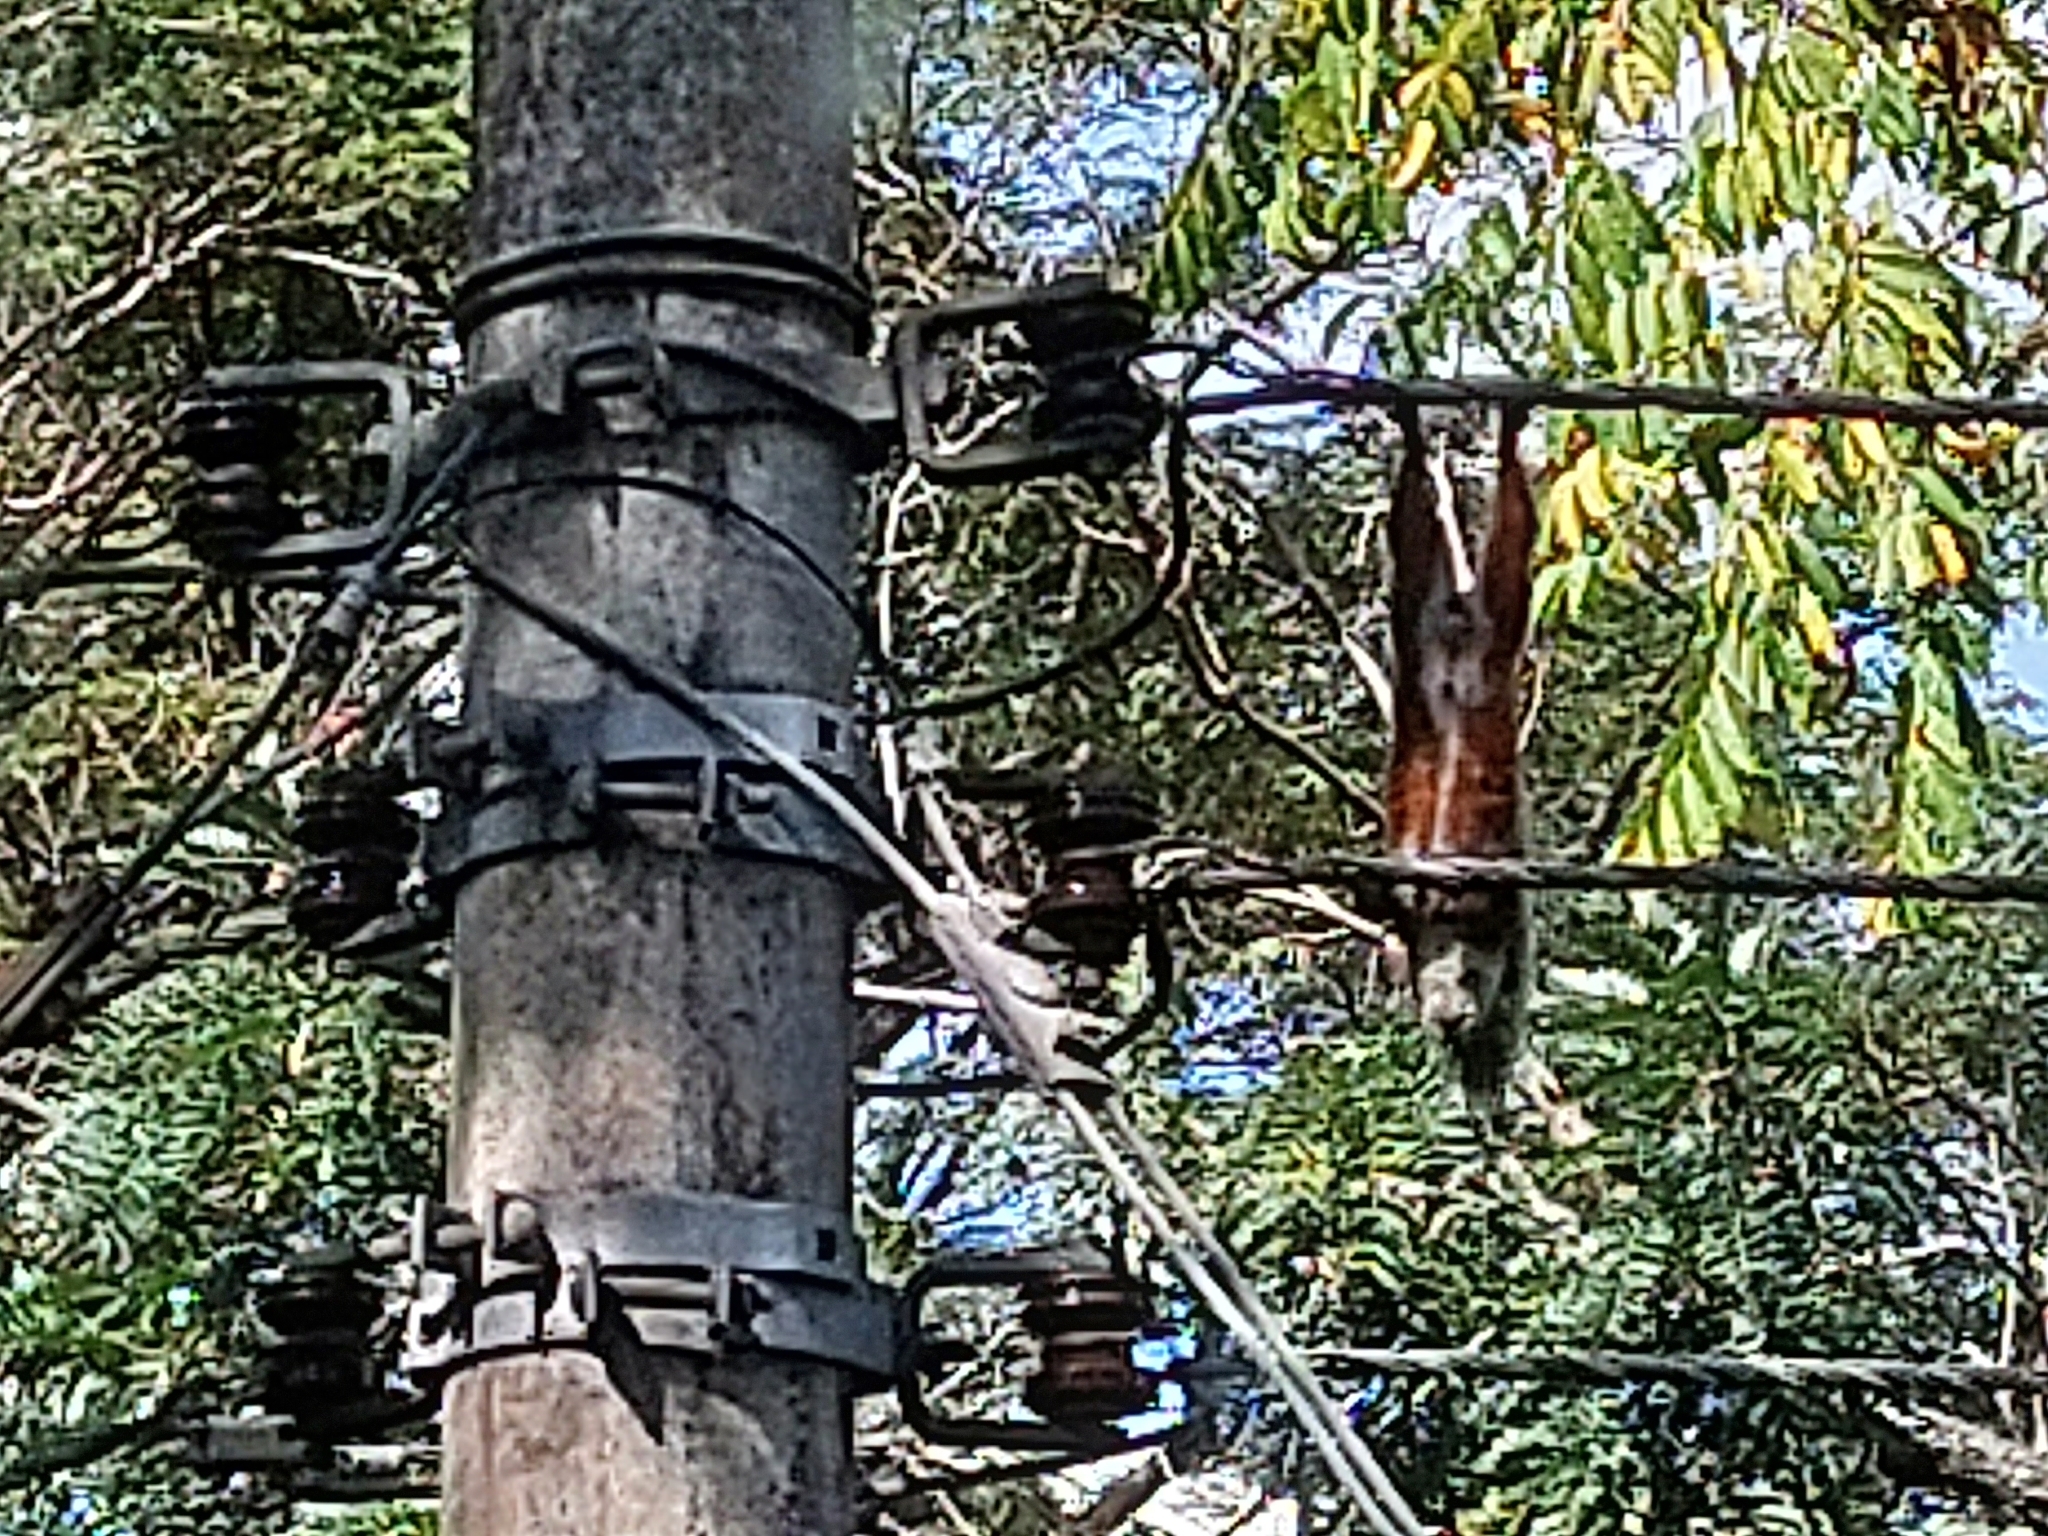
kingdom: Animalia
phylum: Chordata
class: Mammalia
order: Rodentia
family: Sciuridae
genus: Sciurus
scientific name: Sciurus variegatoides
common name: Variegated squirrel
